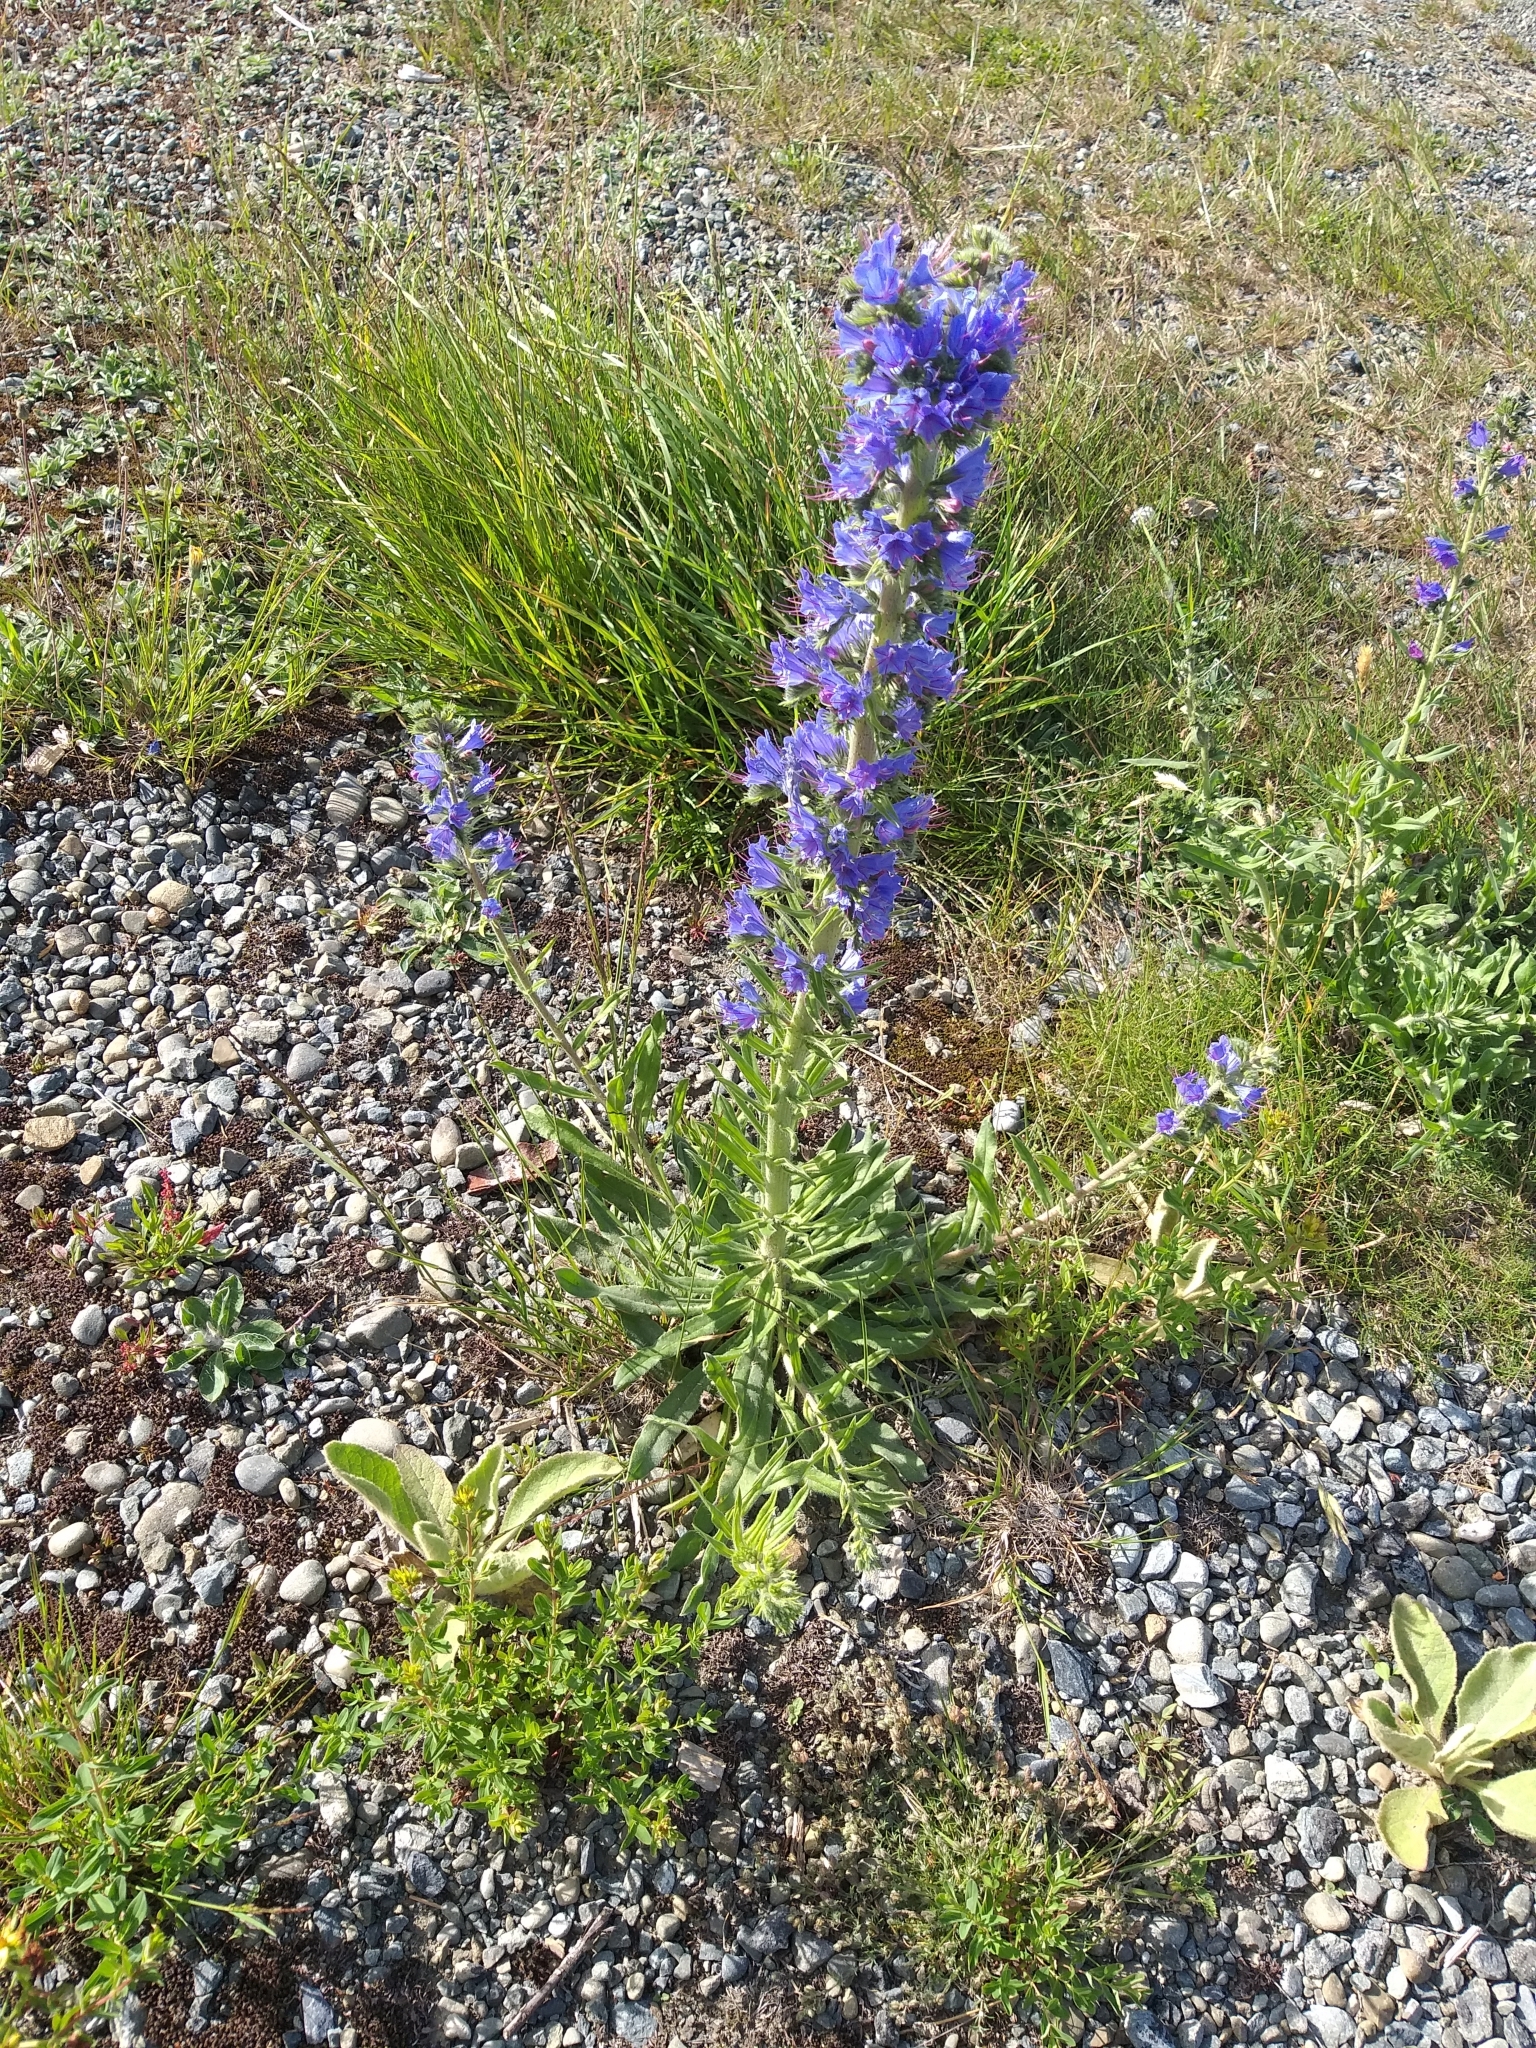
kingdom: Plantae
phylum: Tracheophyta
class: Magnoliopsida
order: Boraginales
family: Boraginaceae
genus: Echium
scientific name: Echium vulgare
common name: Common viper's bugloss
